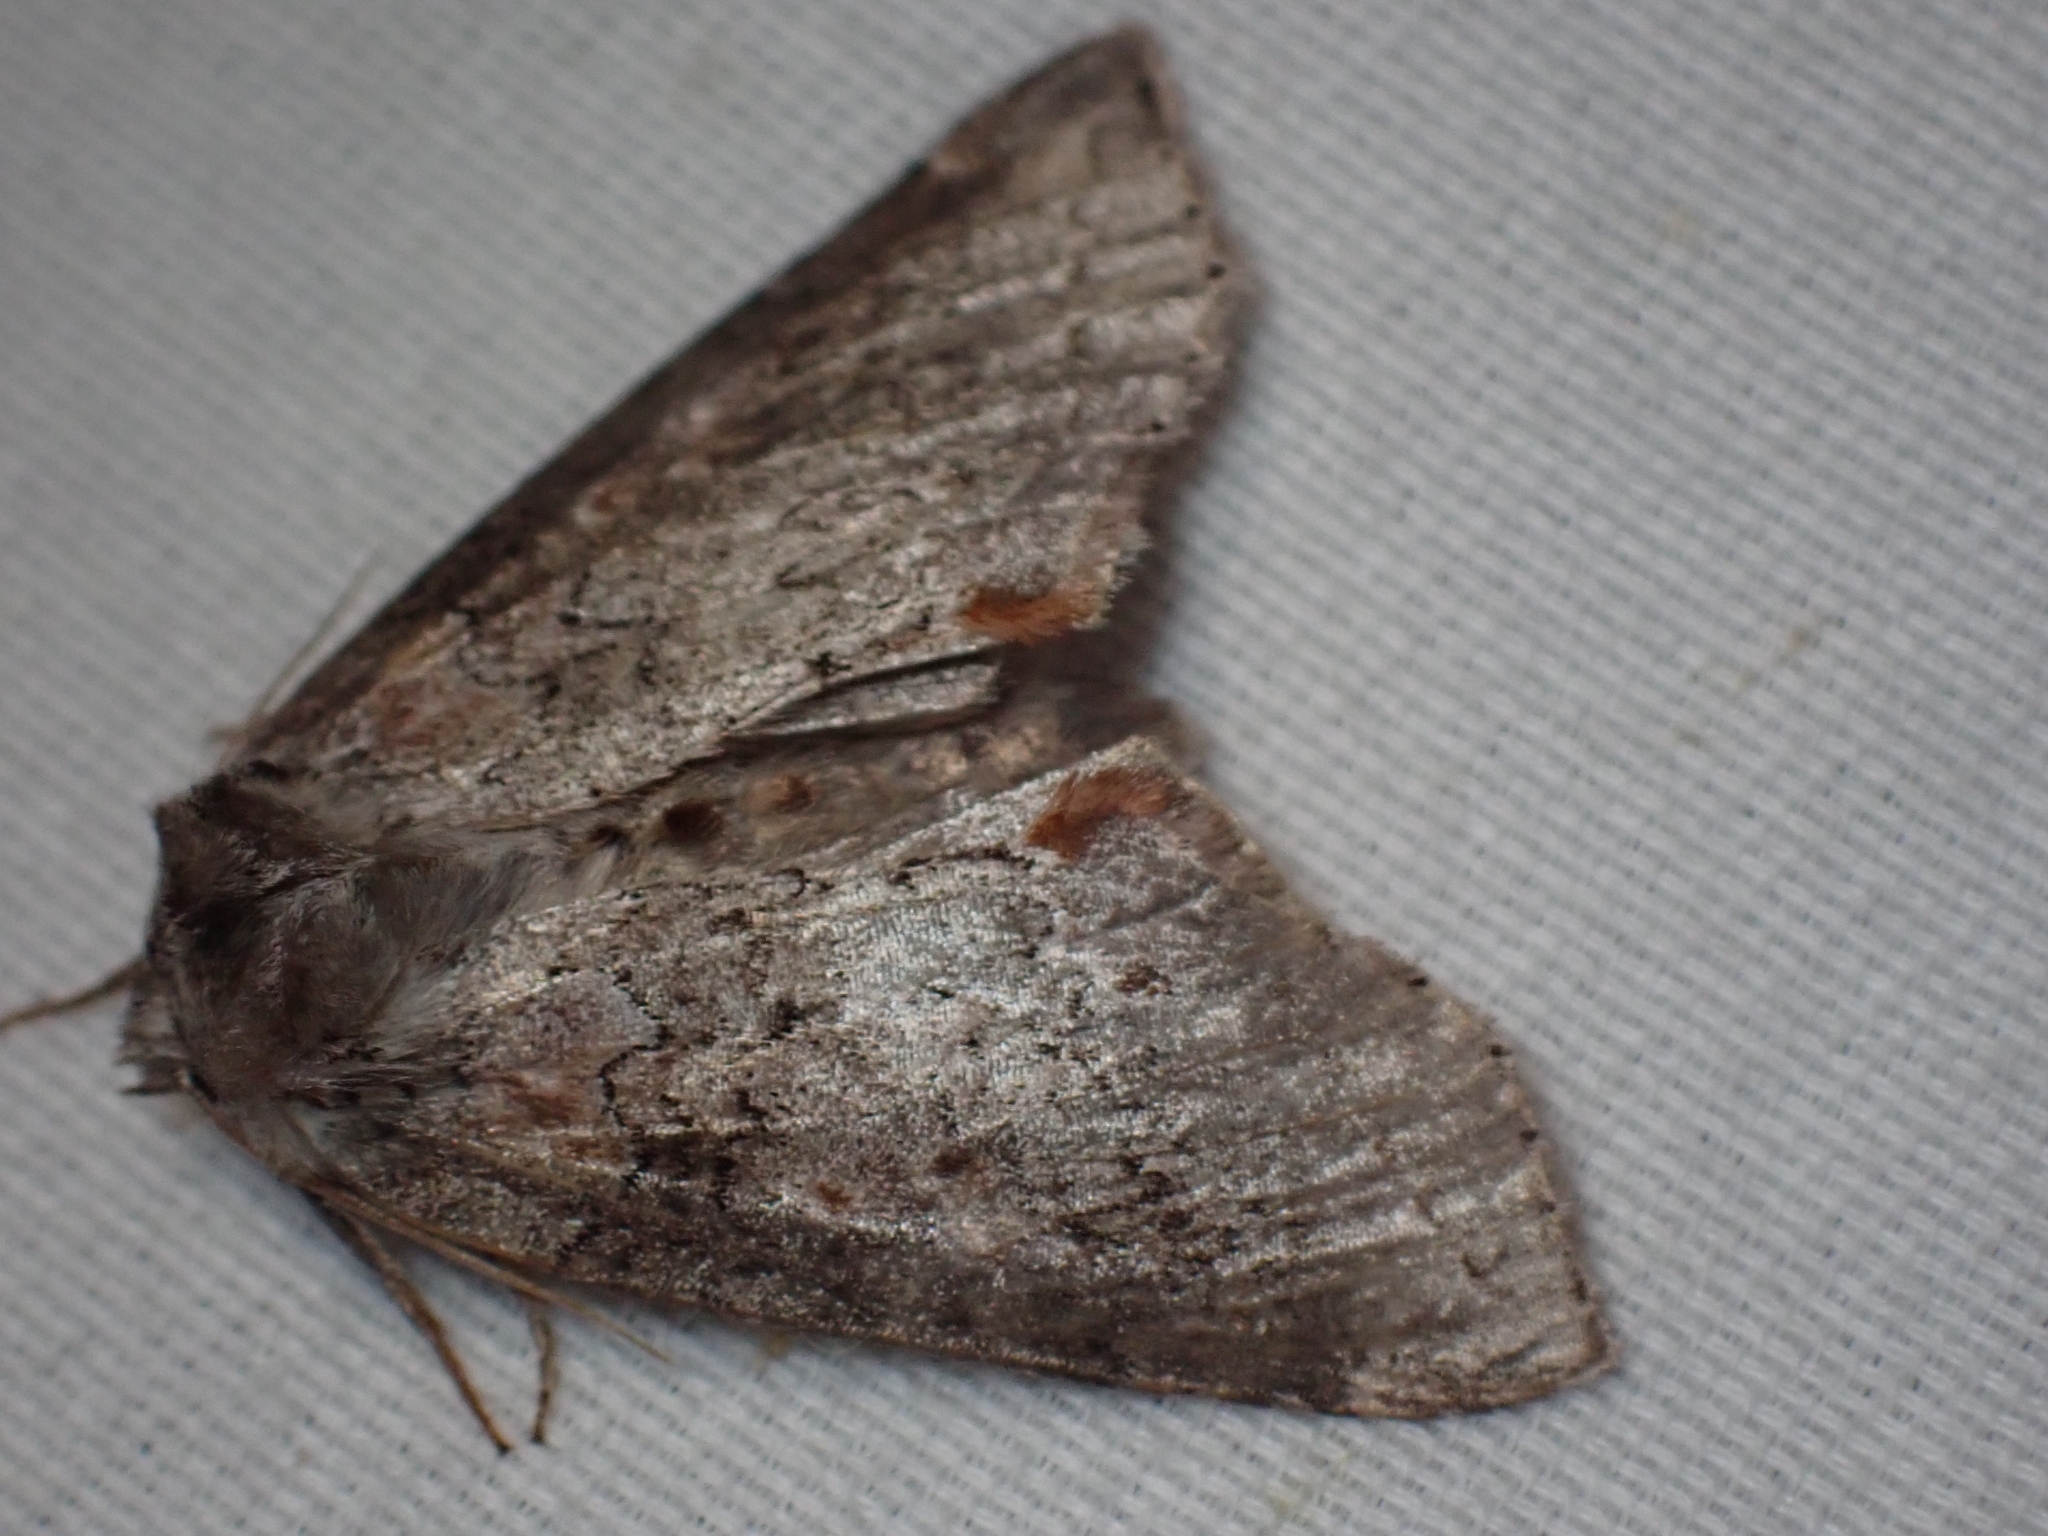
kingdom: Animalia
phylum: Arthropoda
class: Insecta
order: Lepidoptera
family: Drepanidae
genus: Pseudothyatira
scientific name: Pseudothyatira cymatophoroides
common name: Tufted thyatirid moth
